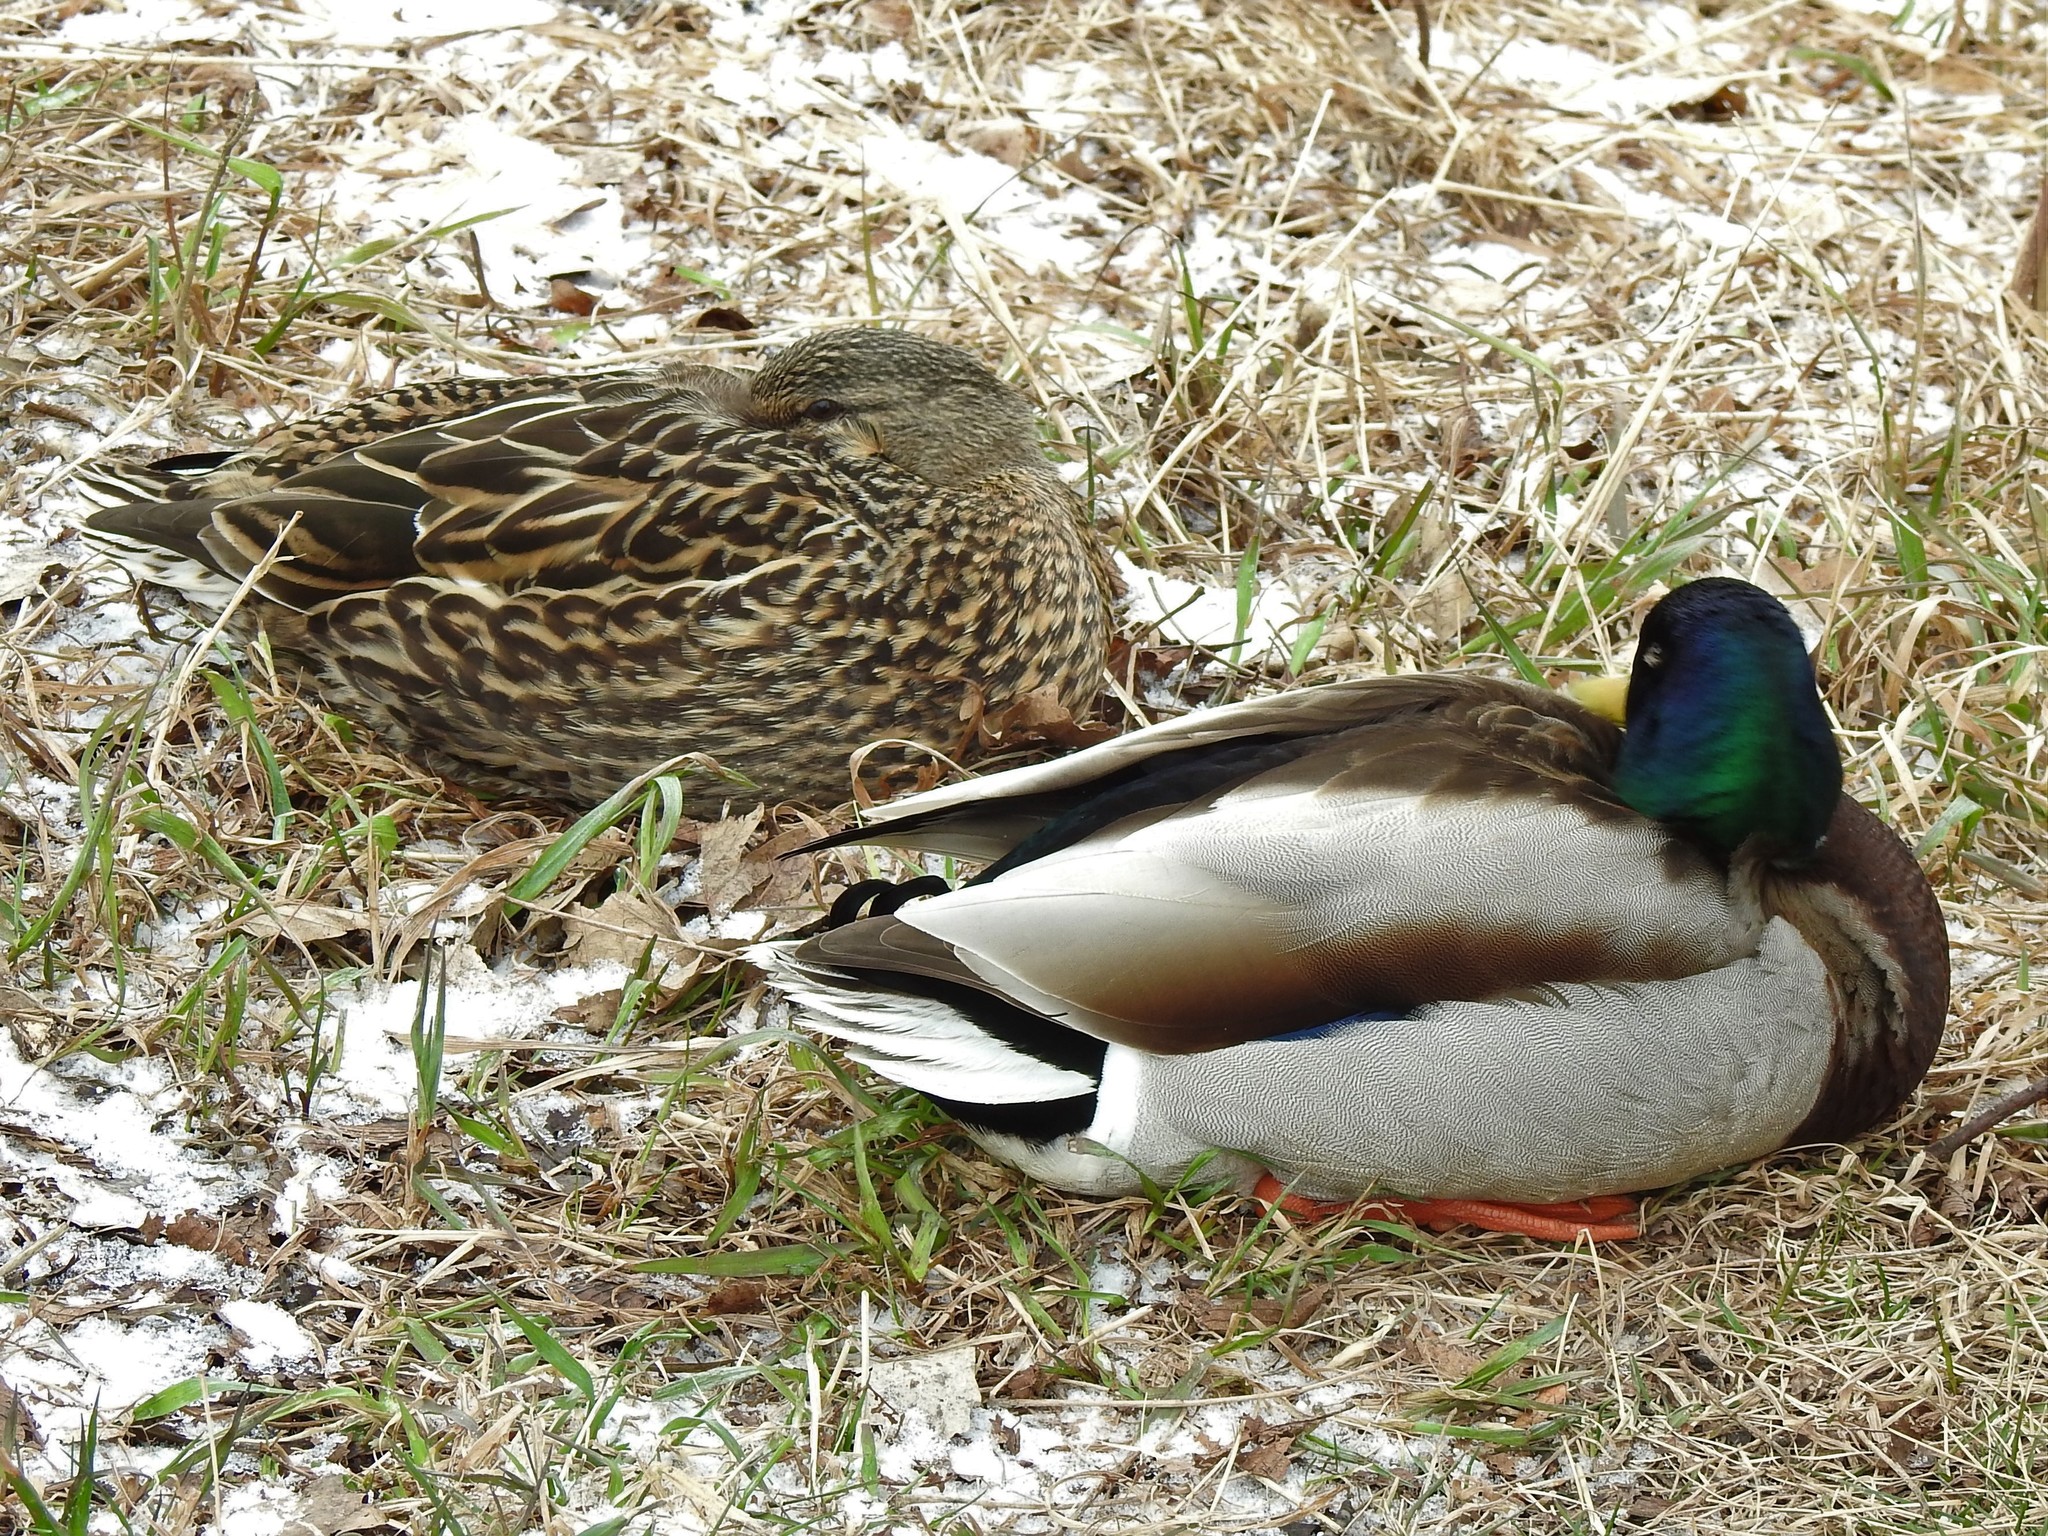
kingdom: Animalia
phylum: Chordata
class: Aves
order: Anseriformes
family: Anatidae
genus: Anas
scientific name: Anas platyrhynchos
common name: Mallard
